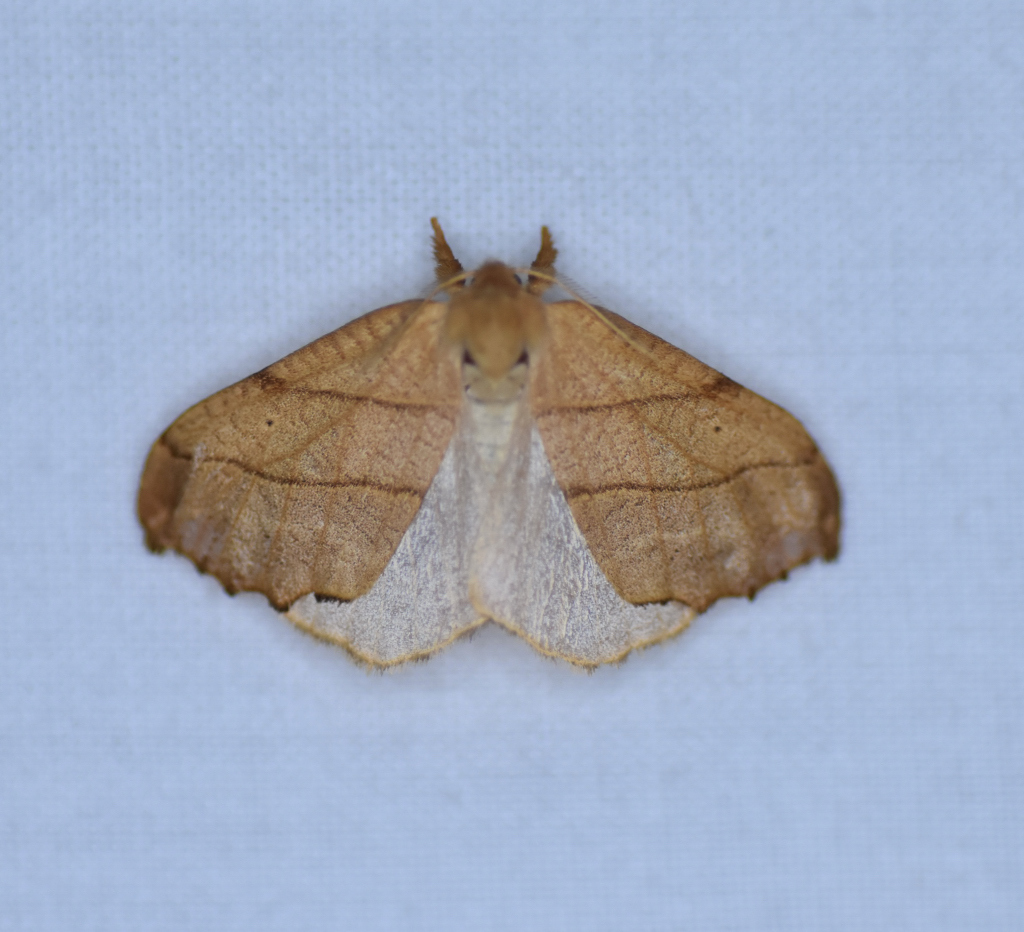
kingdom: Animalia
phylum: Arthropoda
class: Insecta
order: Lepidoptera
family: Drepanidae
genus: Falcaria
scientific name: Falcaria bilineata
